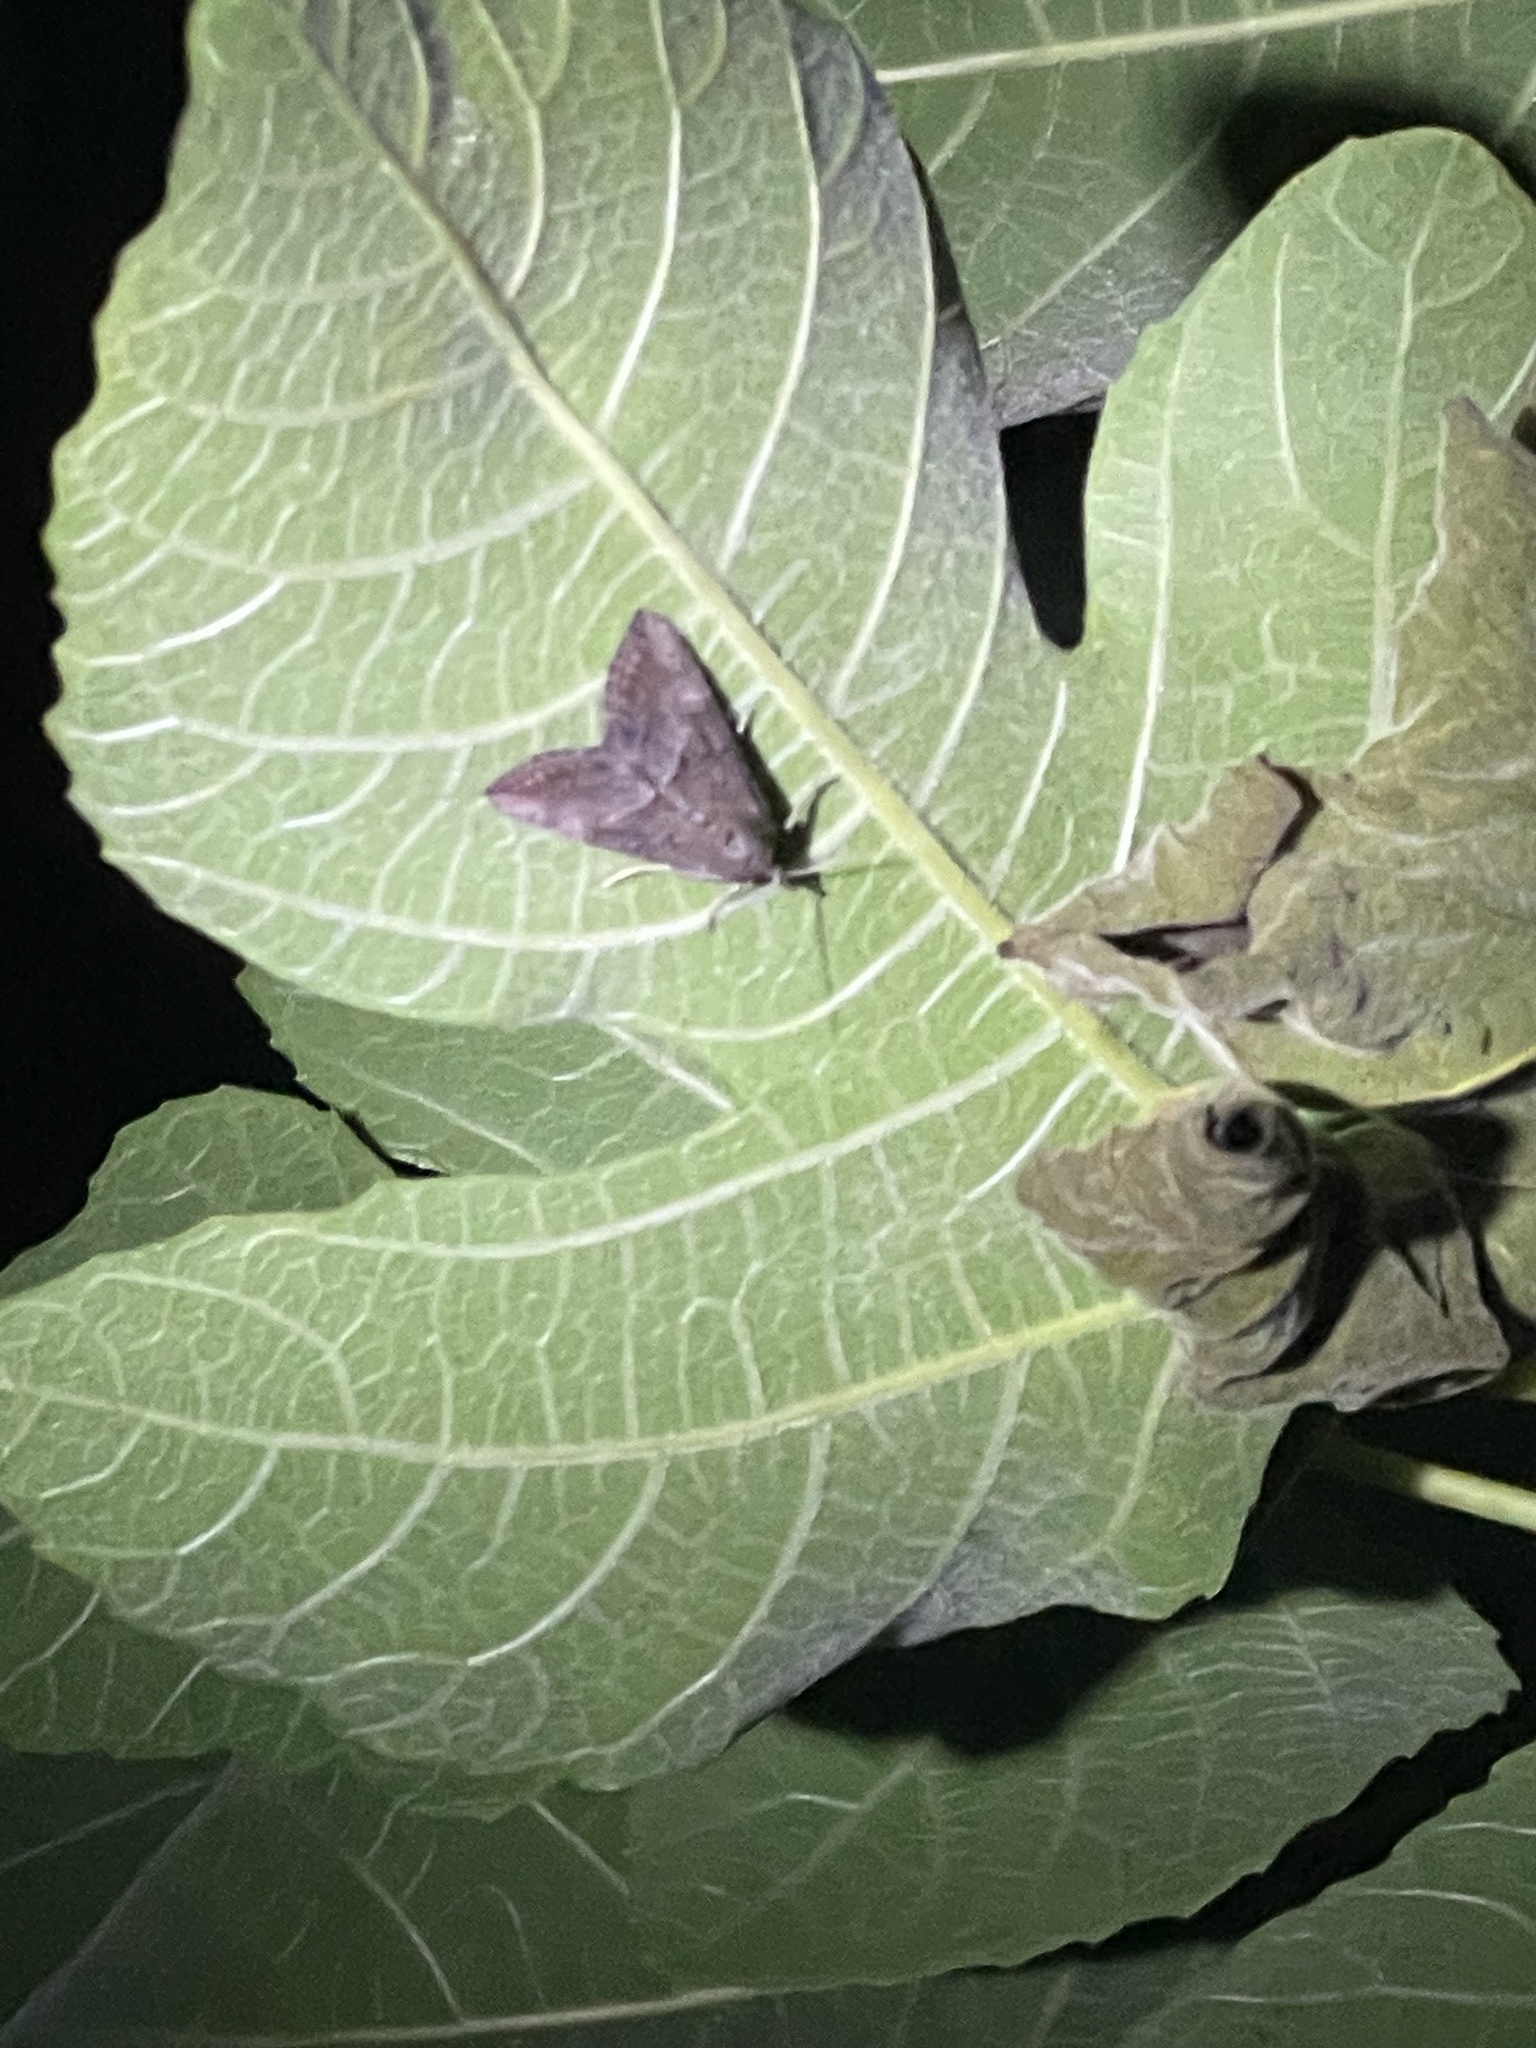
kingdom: Animalia
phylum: Arthropoda
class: Insecta
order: Lepidoptera
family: Erebidae
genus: Hypena
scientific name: Hypena scabra
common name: Green cloverworm
